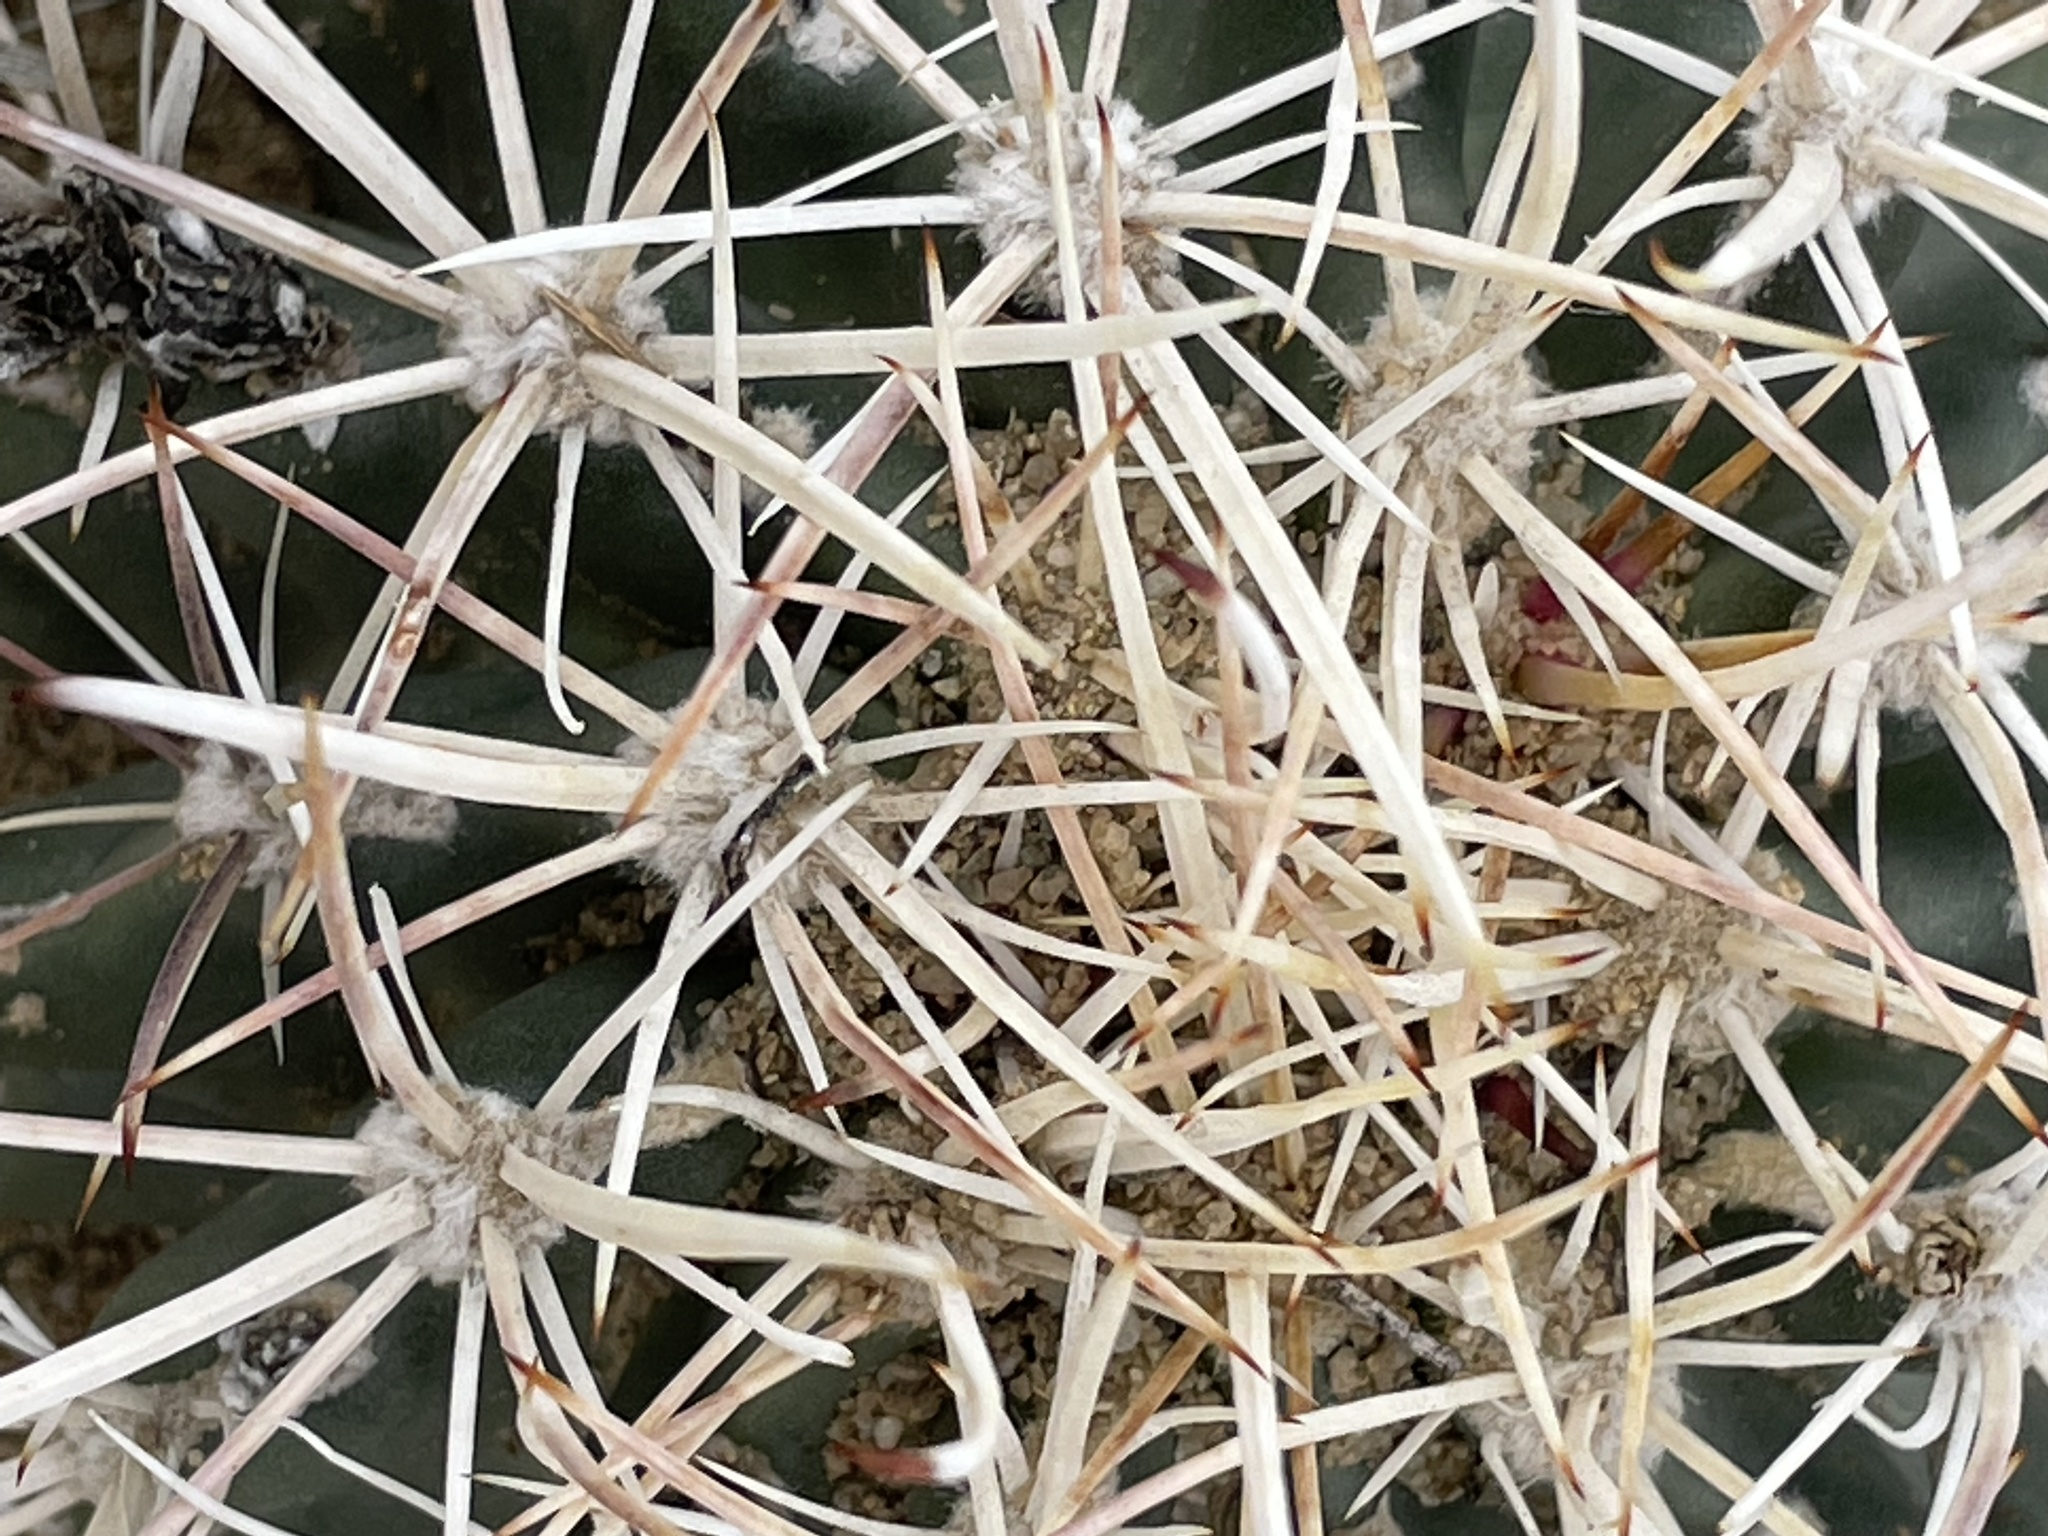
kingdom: Plantae
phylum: Tracheophyta
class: Magnoliopsida
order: Caryophyllales
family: Cactaceae
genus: Sclerocactus
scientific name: Sclerocactus cloverae
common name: Clover's eagle-claw cactus
